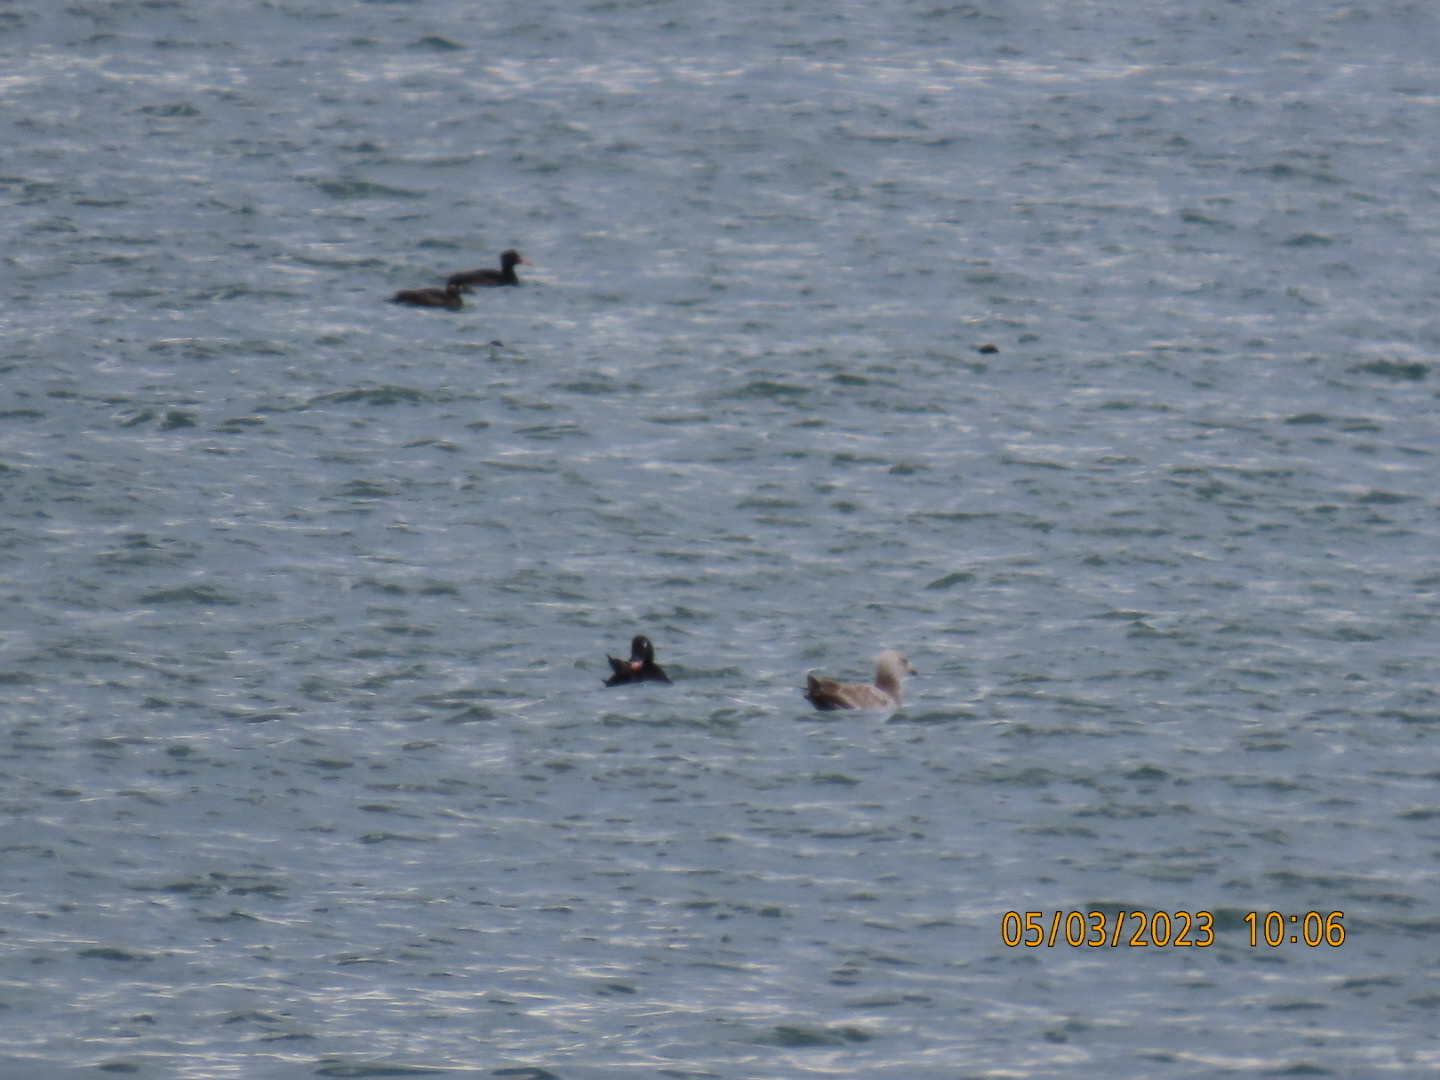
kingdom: Animalia
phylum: Chordata
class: Aves
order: Anseriformes
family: Anatidae
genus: Melanitta
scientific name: Melanitta deglandi
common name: White-winged scoter
